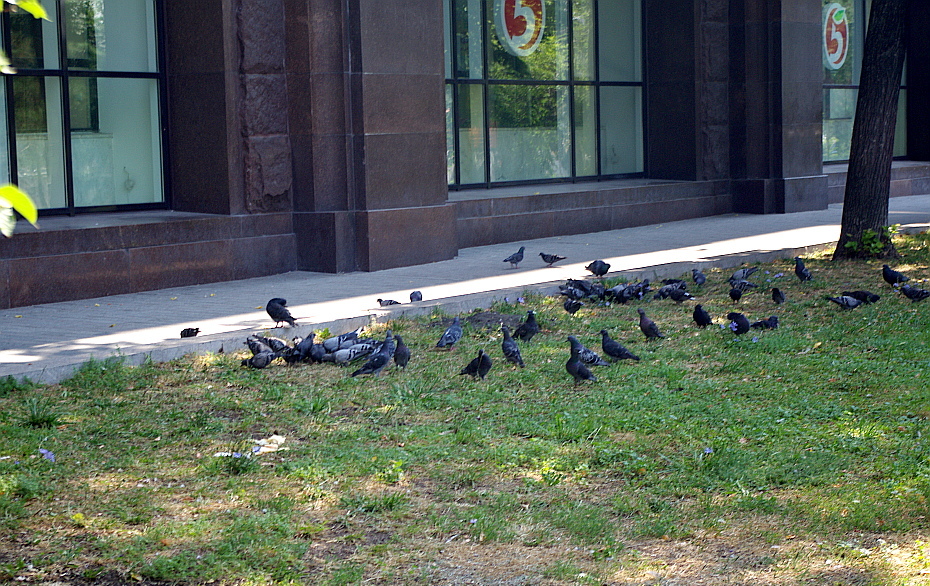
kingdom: Animalia
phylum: Chordata
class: Aves
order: Columbiformes
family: Columbidae
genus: Columba
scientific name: Columba livia
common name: Rock pigeon
